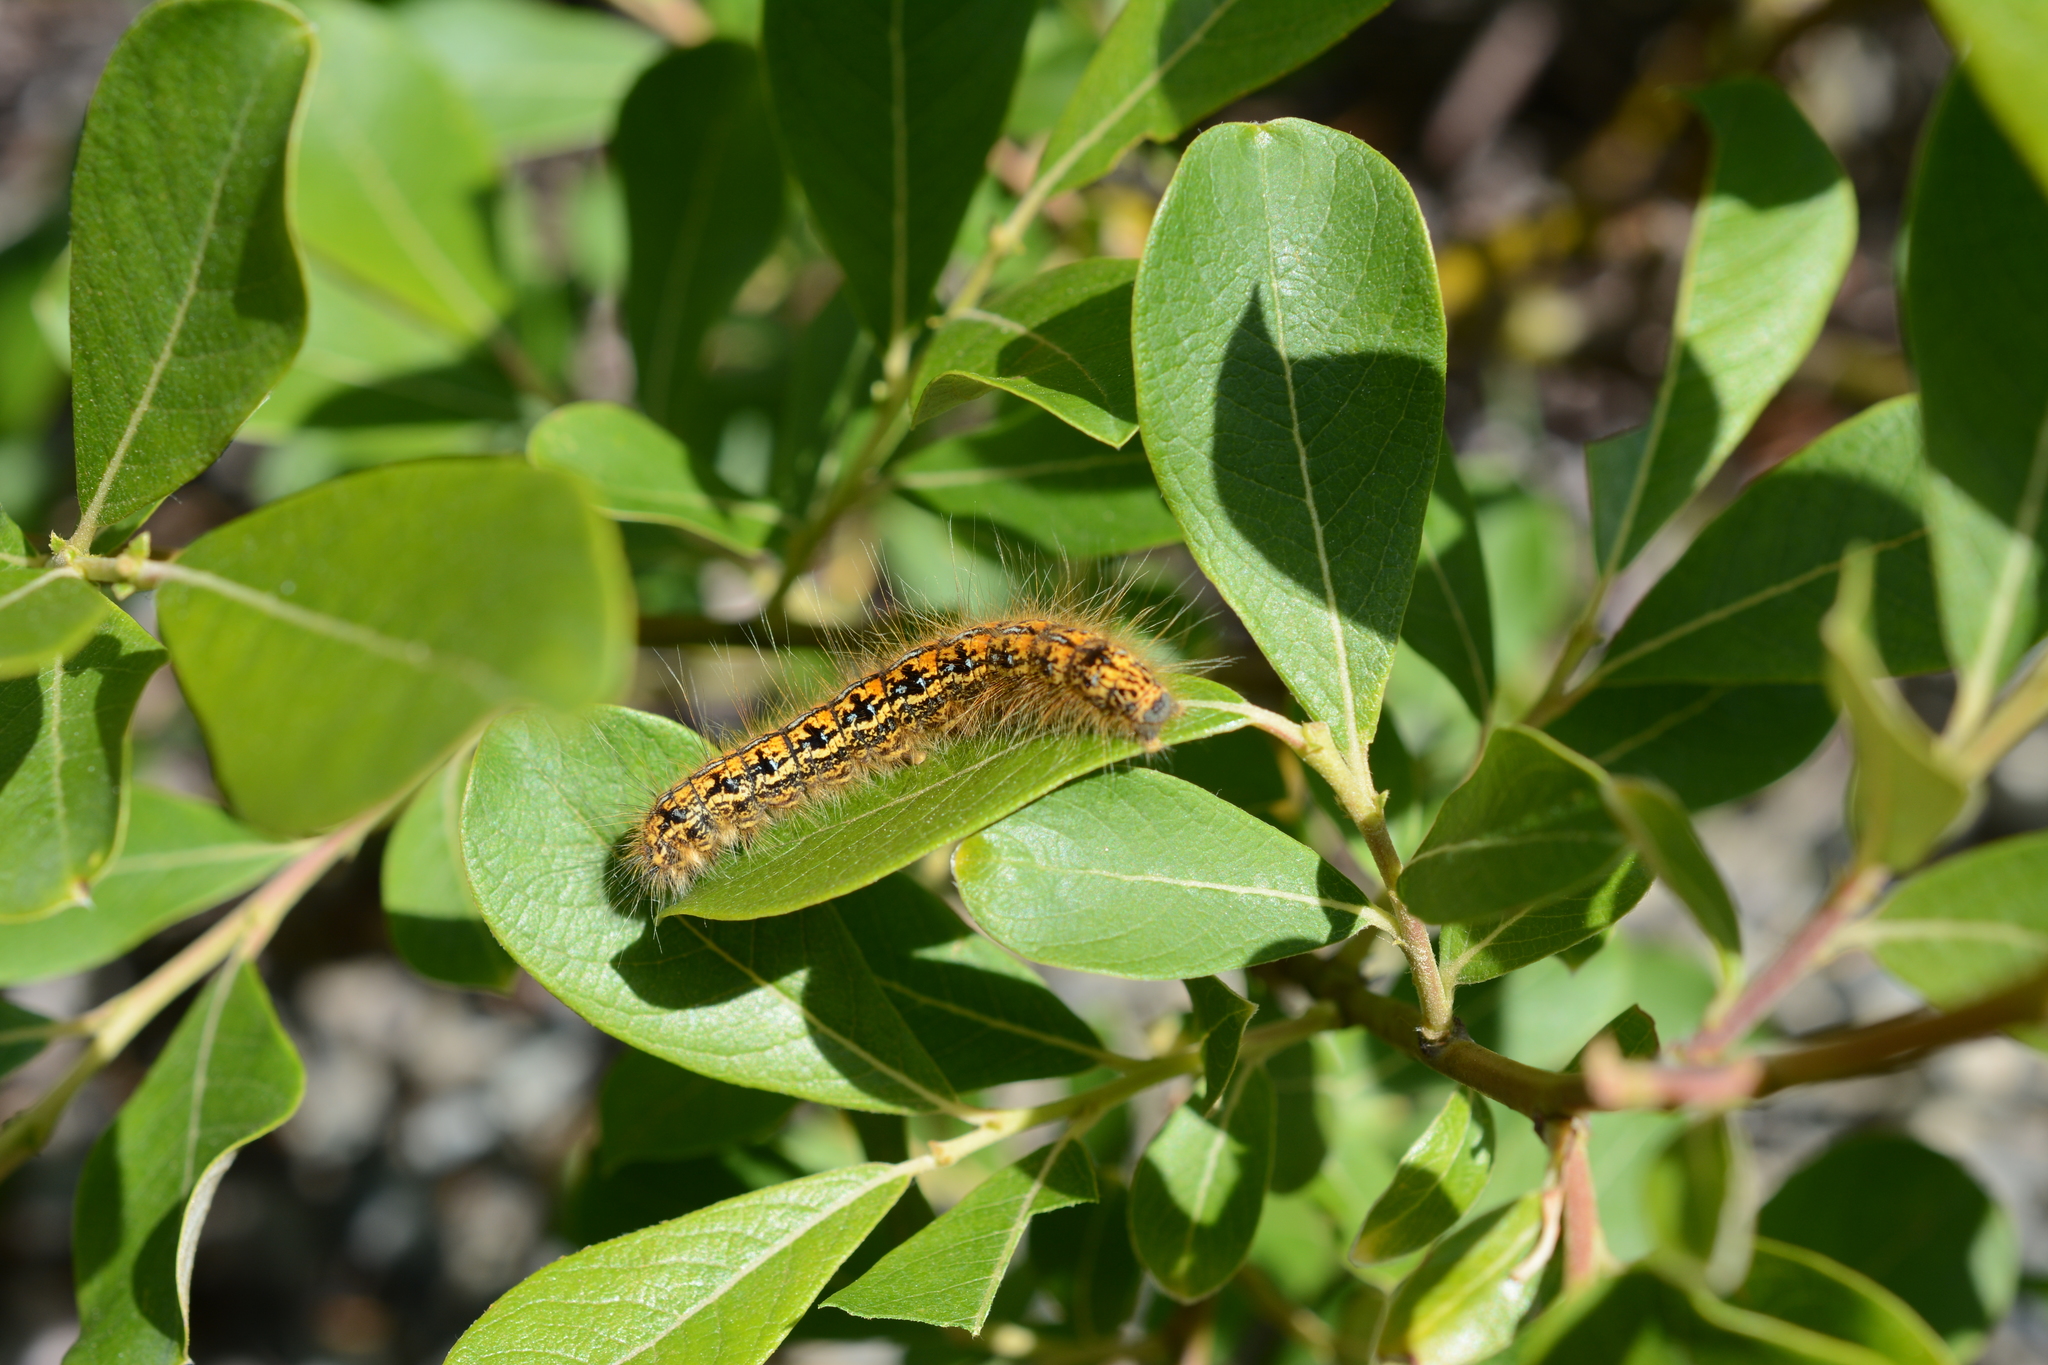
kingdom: Animalia
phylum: Arthropoda
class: Insecta
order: Lepidoptera
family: Lasiocampidae
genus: Malacosoma
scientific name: Malacosoma californica
